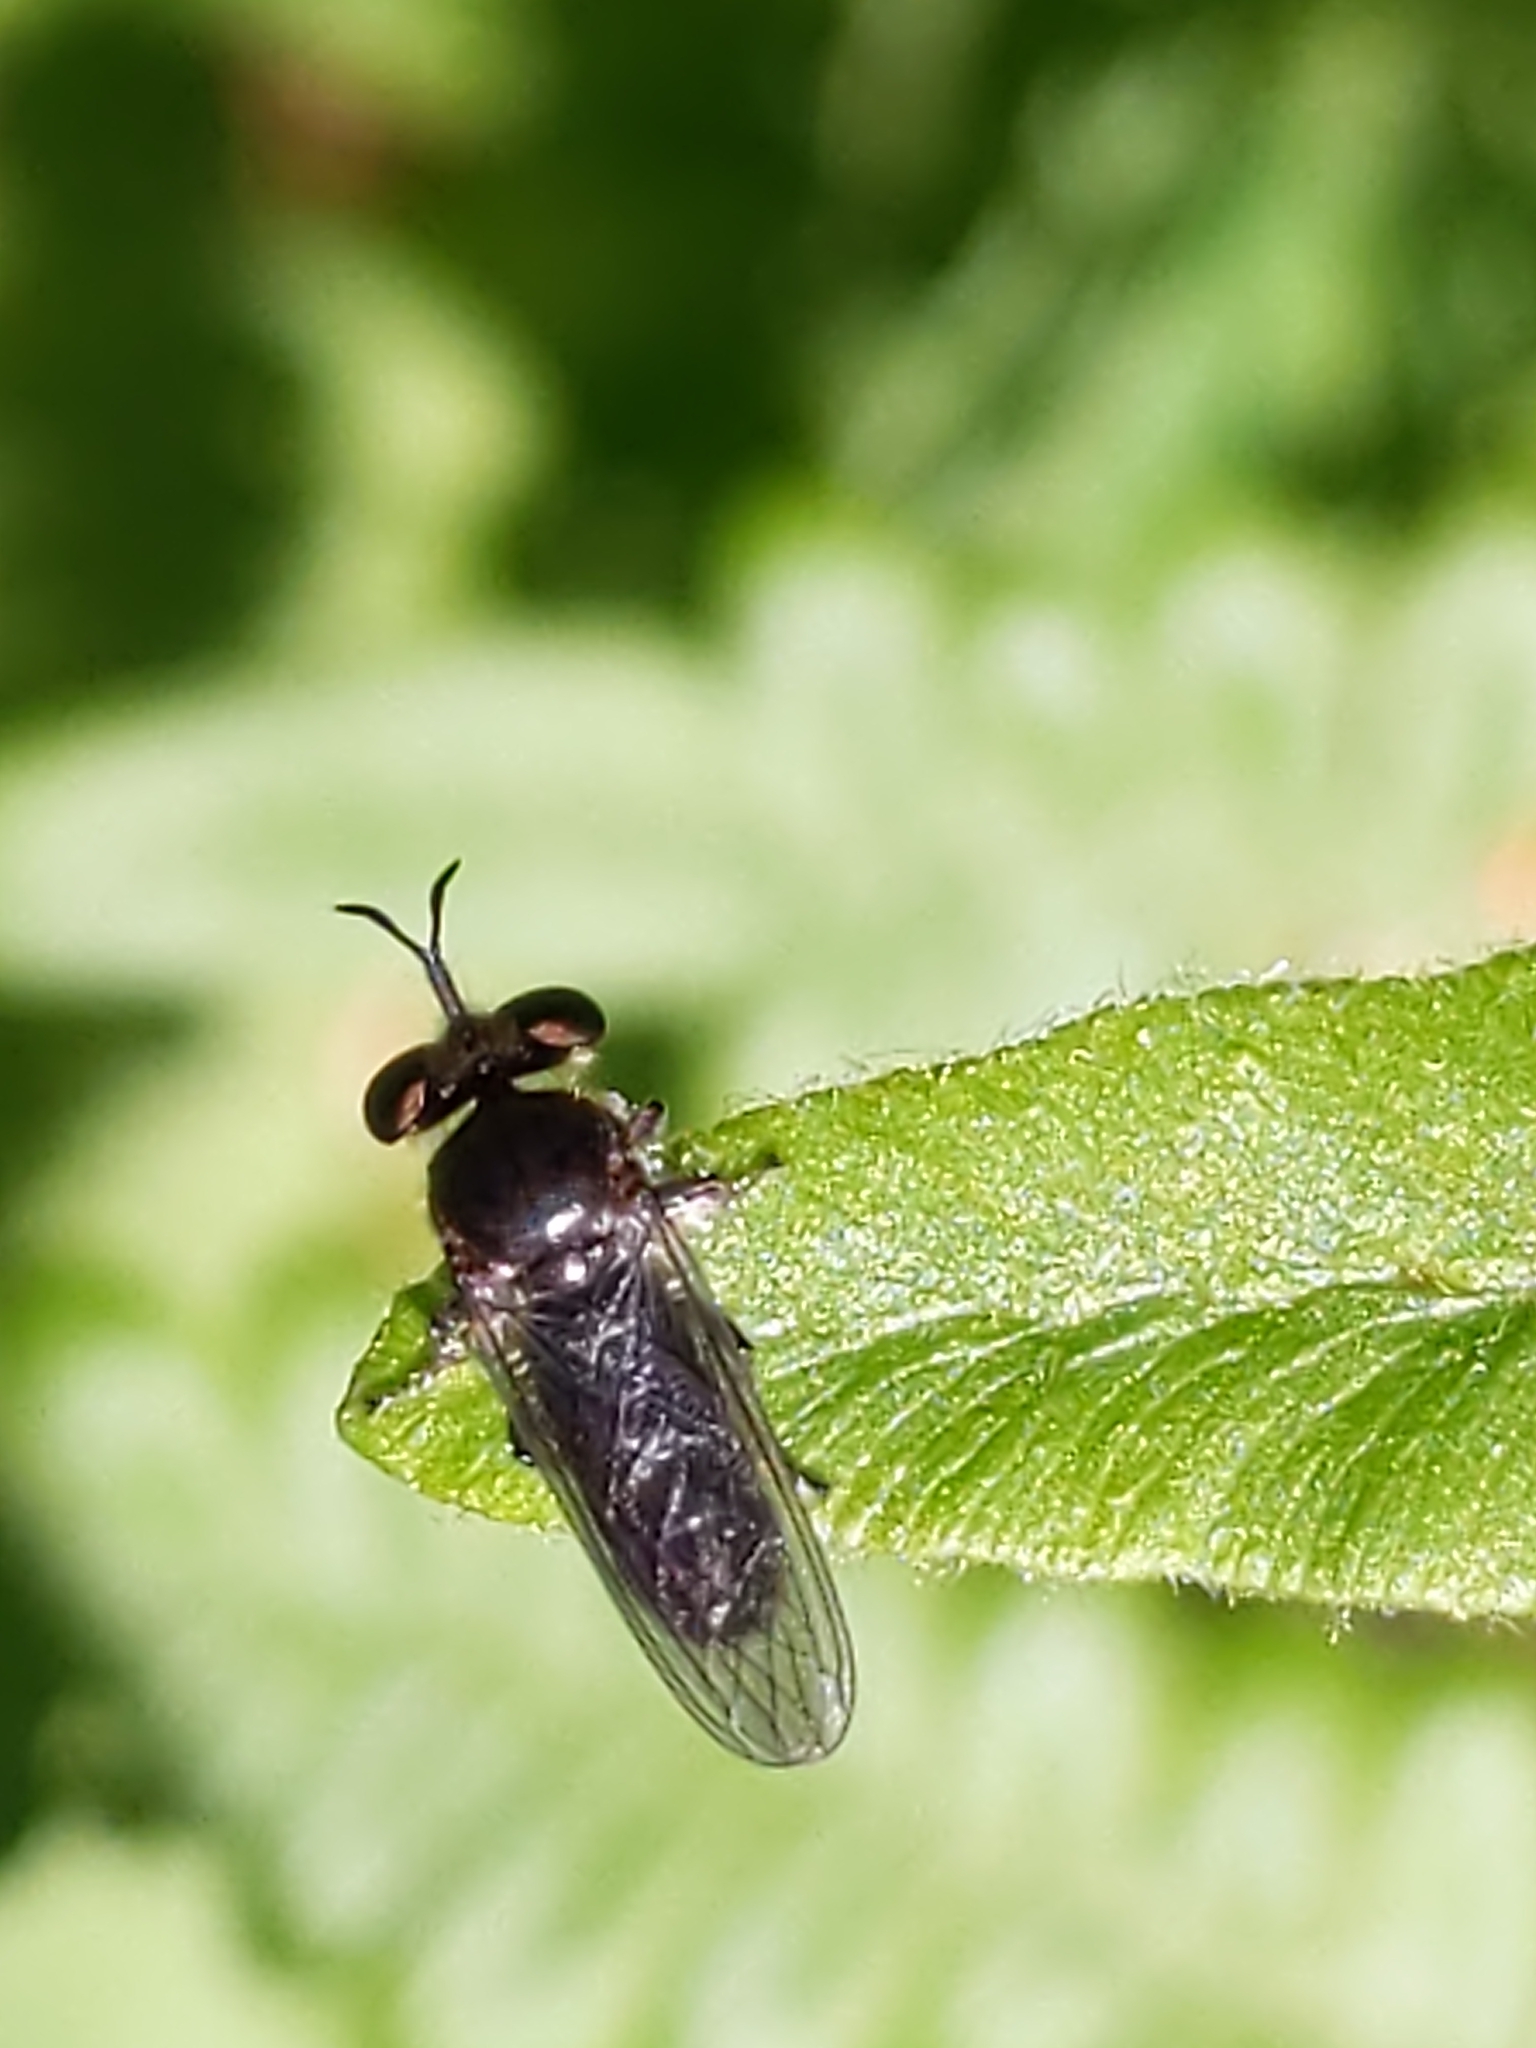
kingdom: Animalia
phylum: Arthropoda
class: Insecta
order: Diptera
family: Asilidae
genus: Cerotainia
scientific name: Cerotainia
